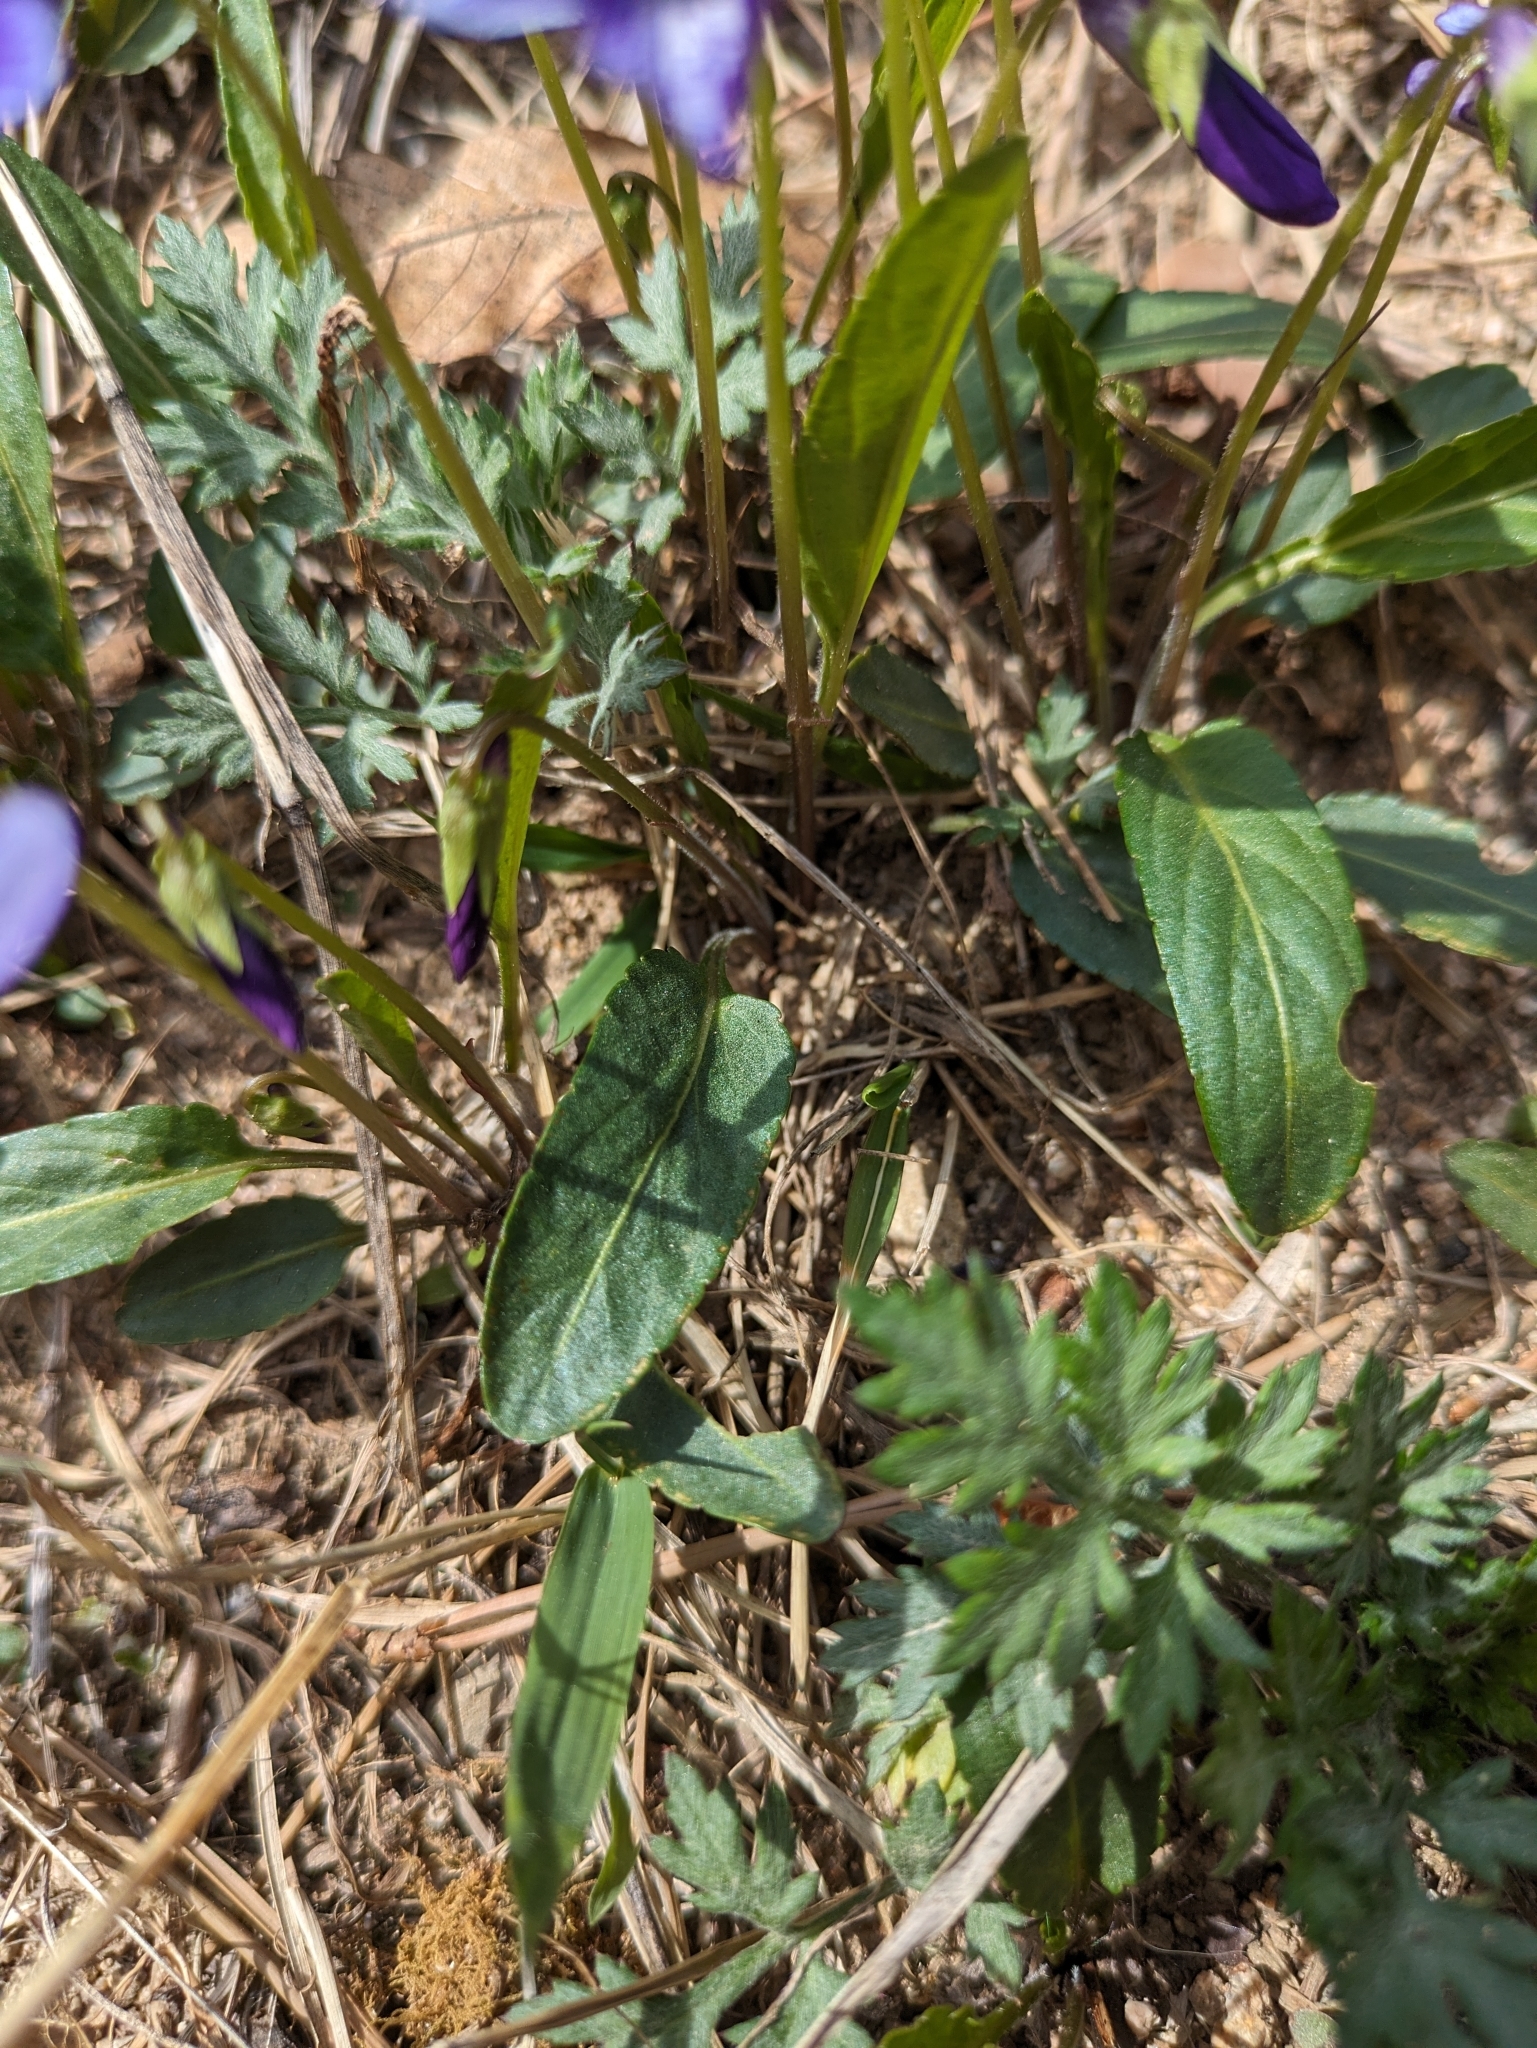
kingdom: Plantae
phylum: Tracheophyta
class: Magnoliopsida
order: Malpighiales
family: Violaceae
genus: Viola
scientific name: Viola mandshurica
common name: Manchuria violet
